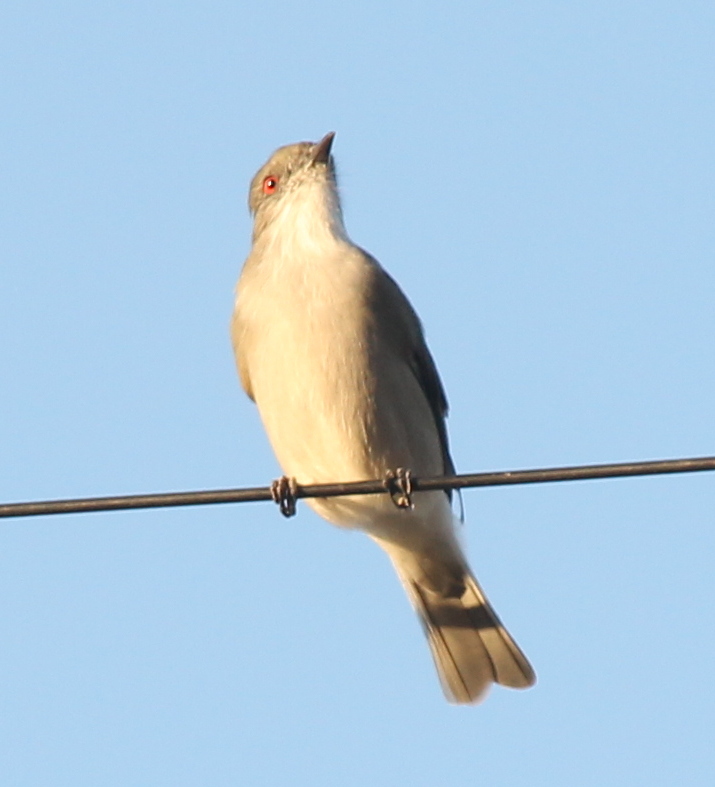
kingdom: Animalia
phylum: Chordata
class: Aves
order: Passeriformes
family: Tyrannidae
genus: Xolmis
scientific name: Xolmis pyrope
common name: Fire-eyed diucon
